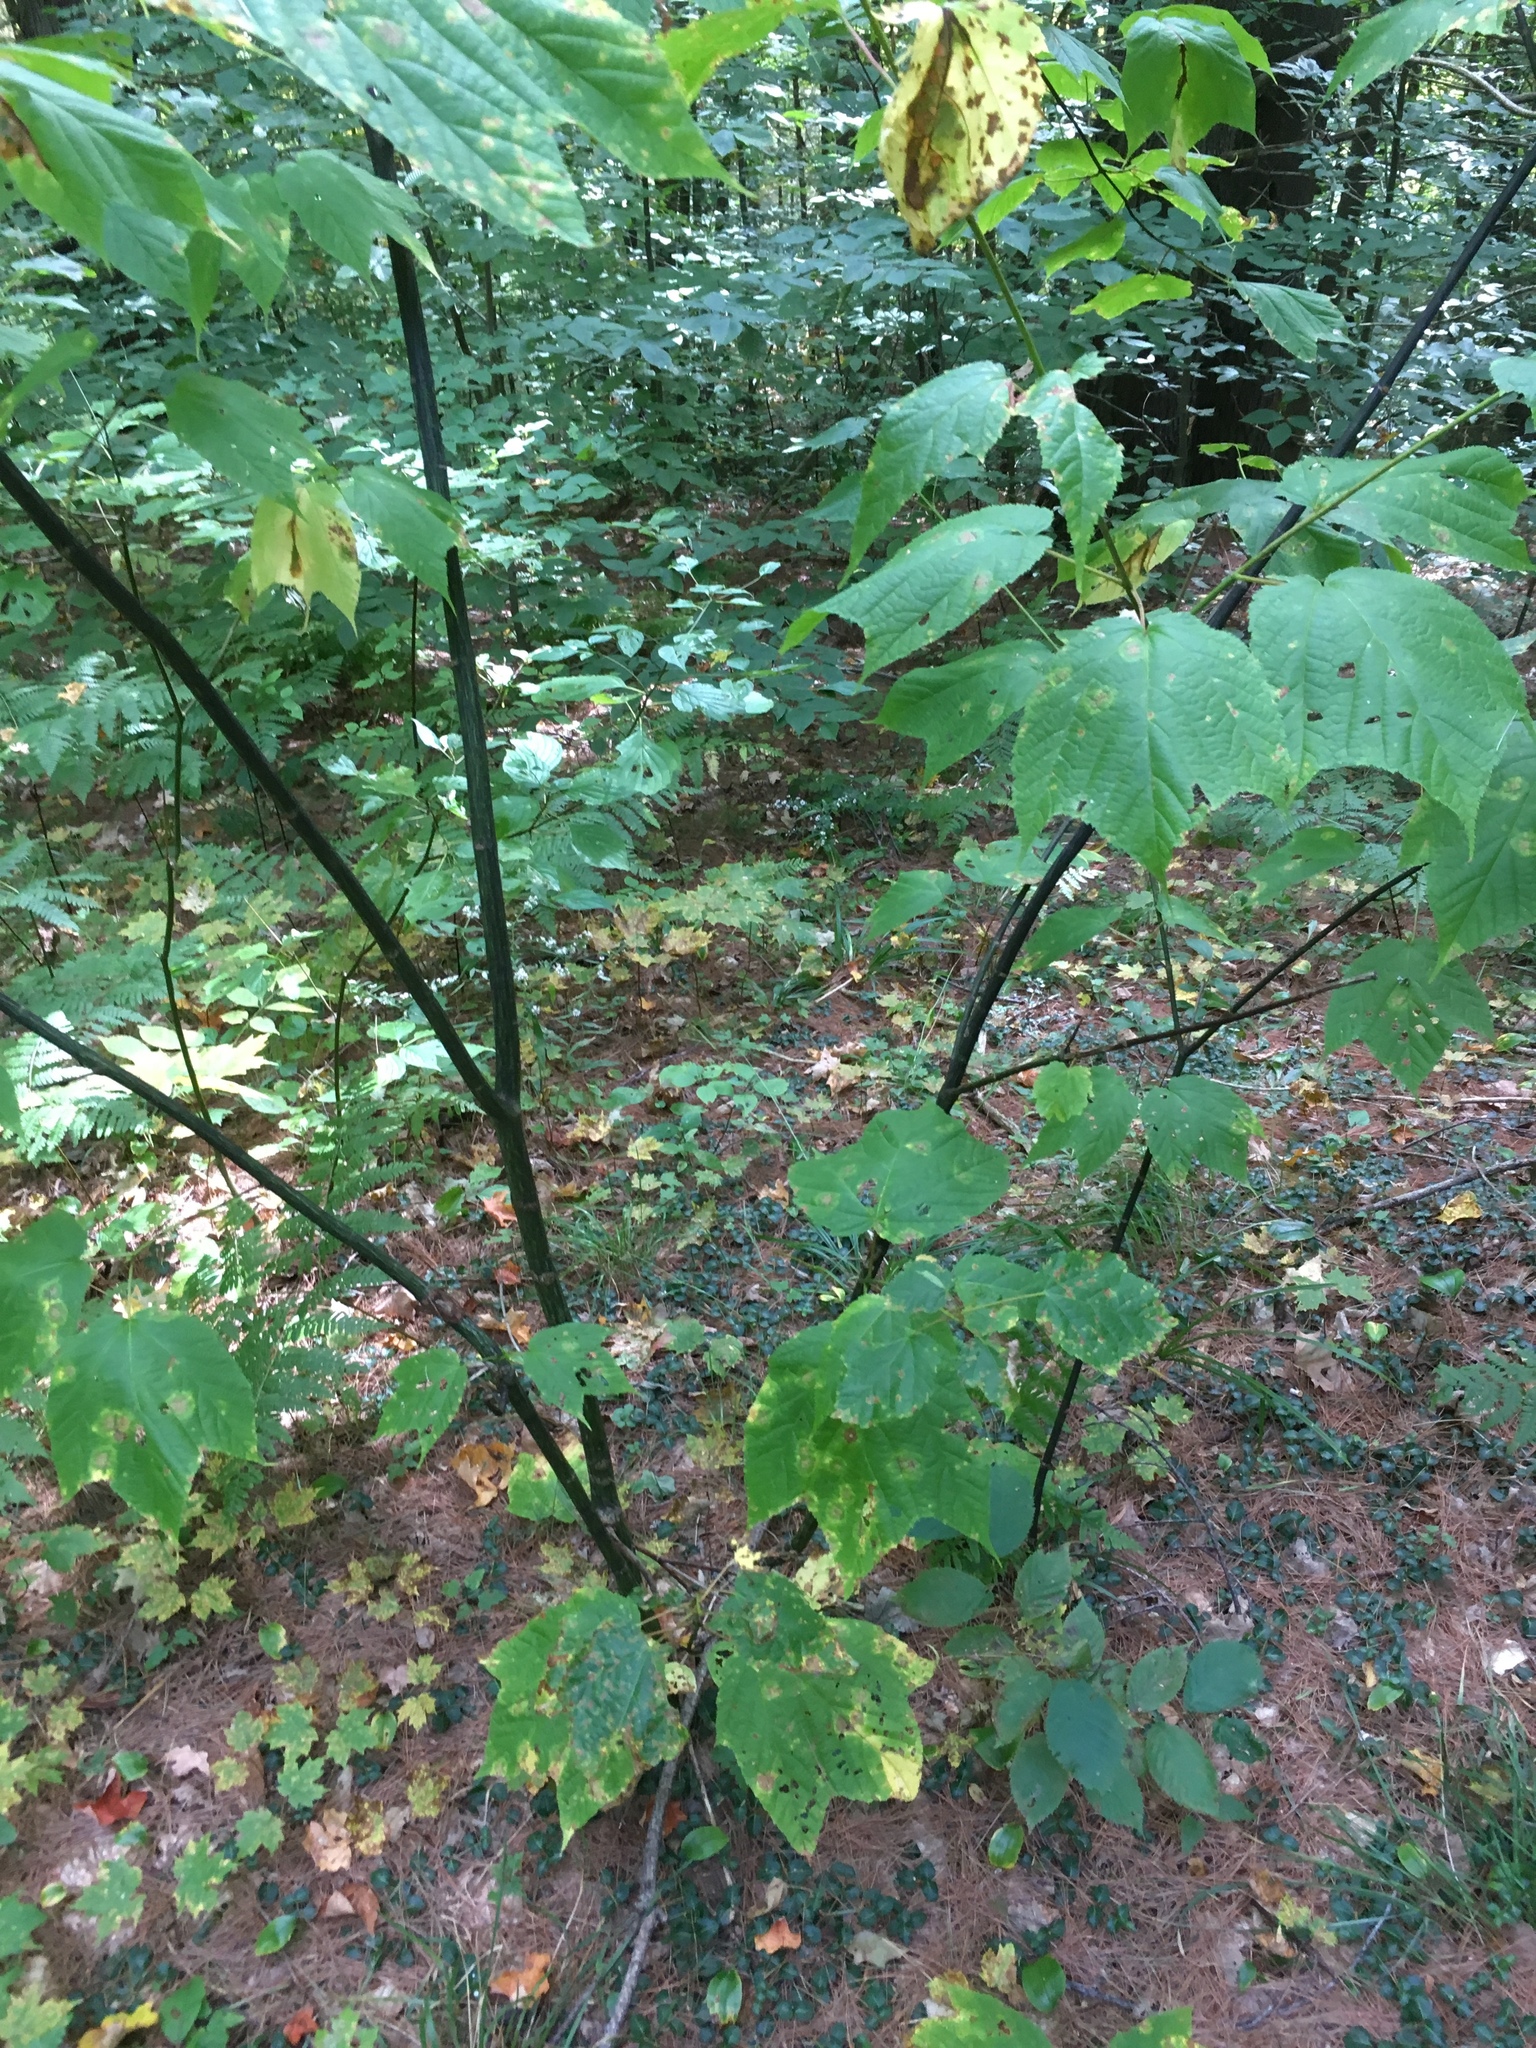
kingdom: Plantae
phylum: Tracheophyta
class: Magnoliopsida
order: Sapindales
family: Sapindaceae
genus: Acer
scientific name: Acer pensylvanicum
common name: Moosewood
